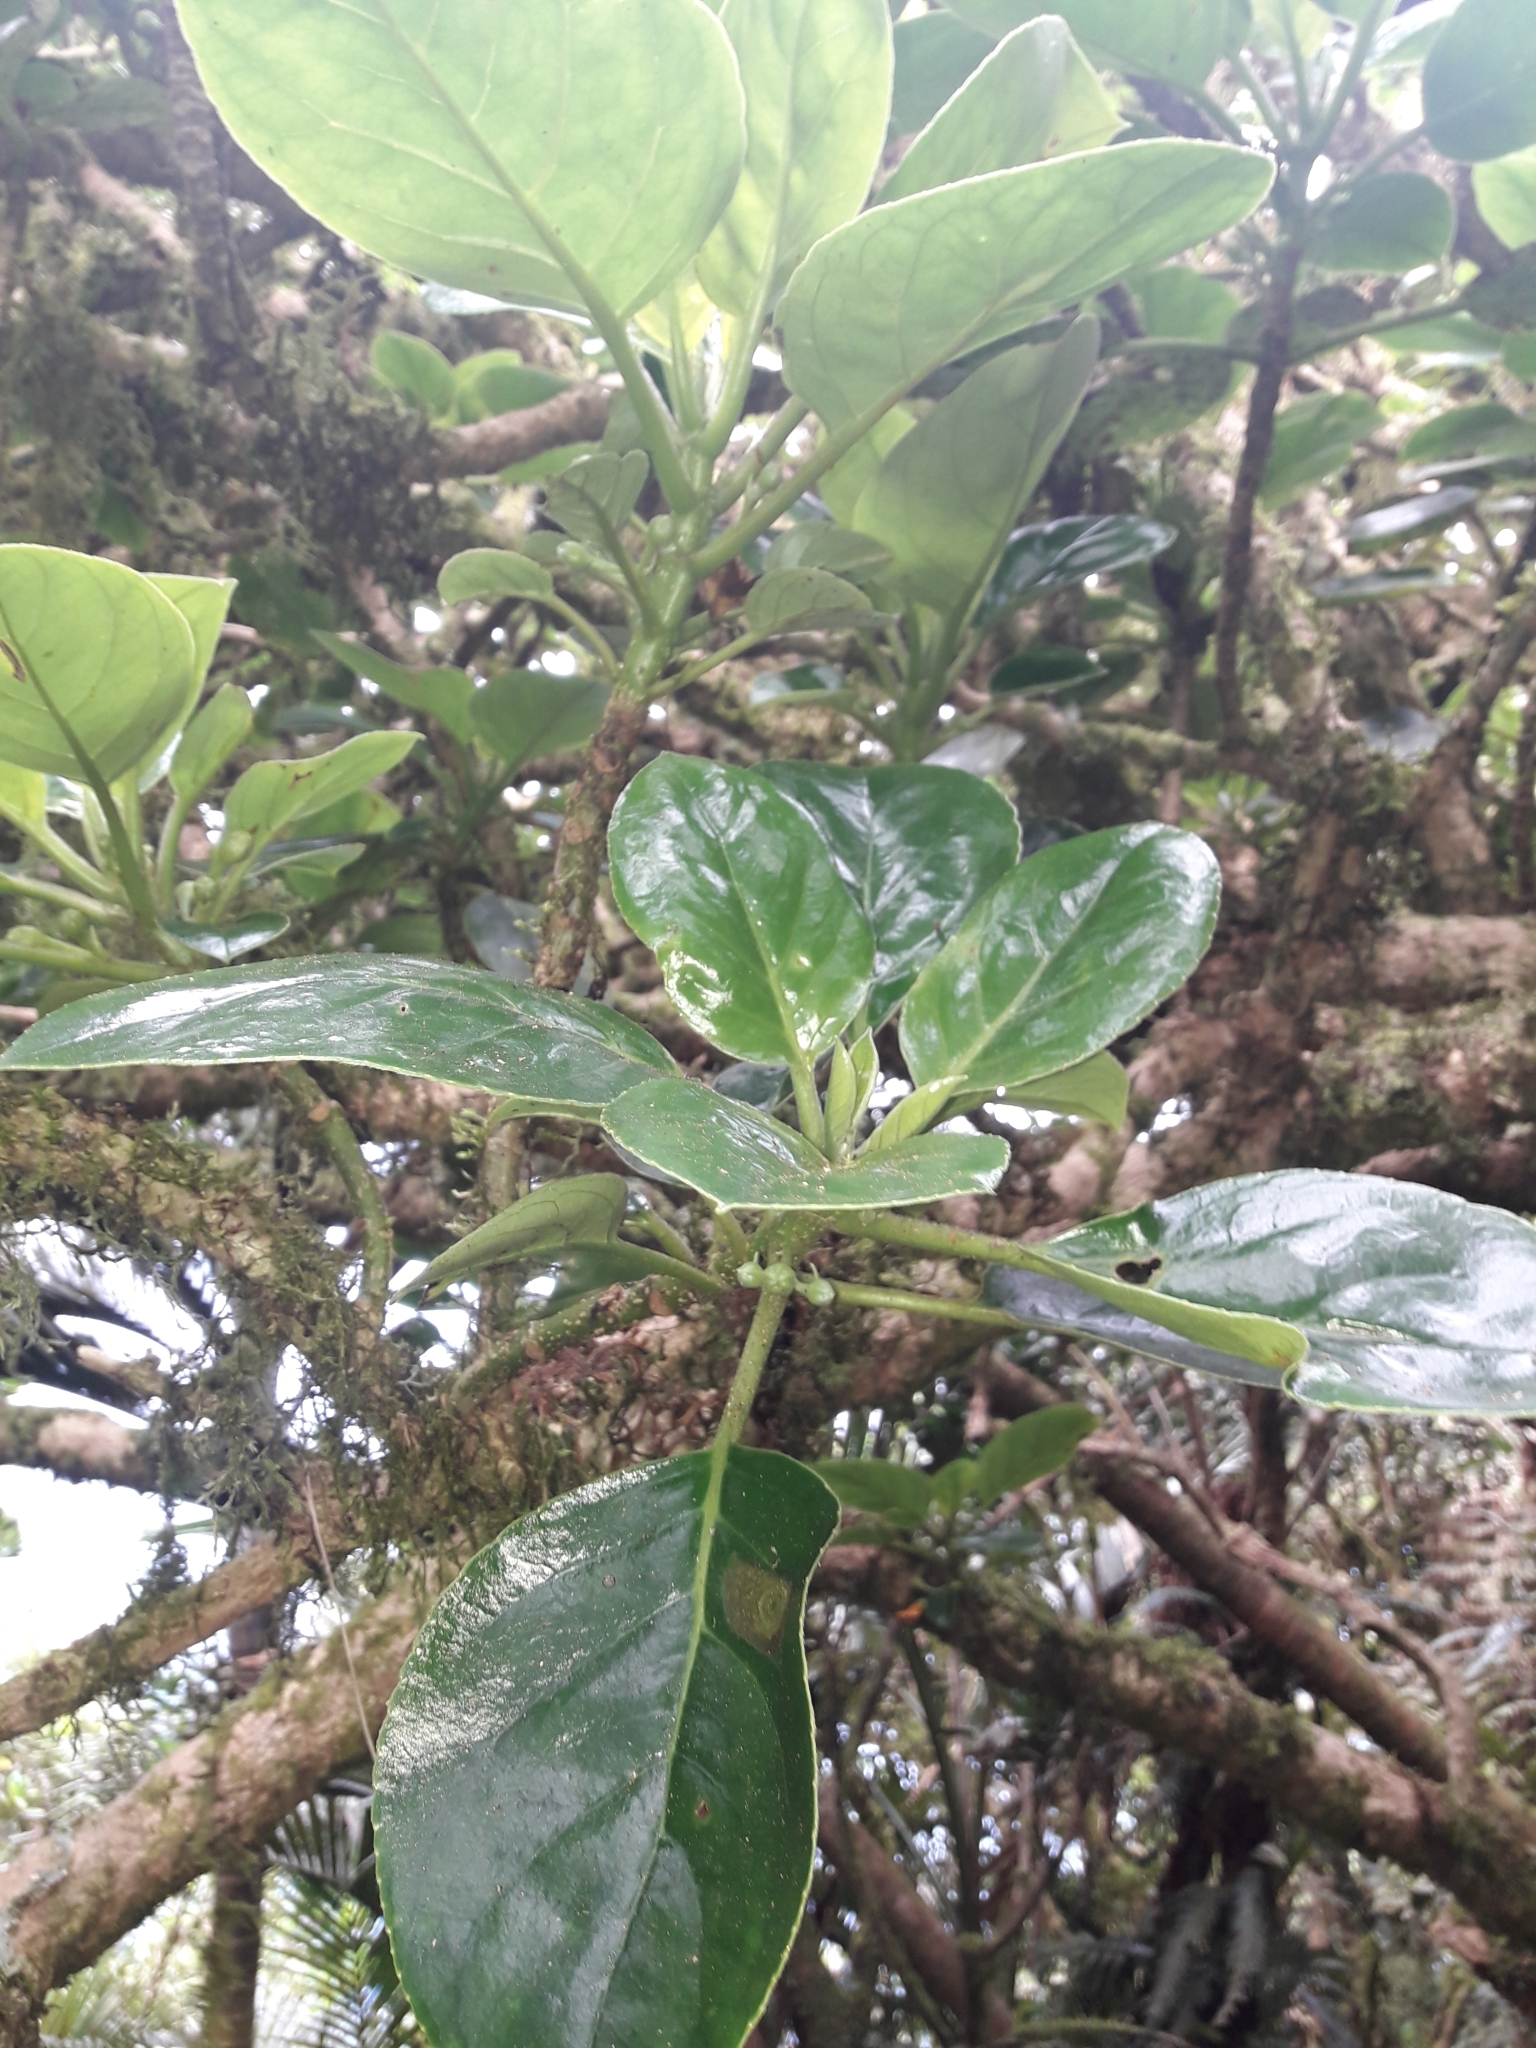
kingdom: Plantae
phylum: Tracheophyta
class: Magnoliopsida
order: Lamiales
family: Gesneriaceae
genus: Negria
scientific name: Negria rhabdothamnoides
